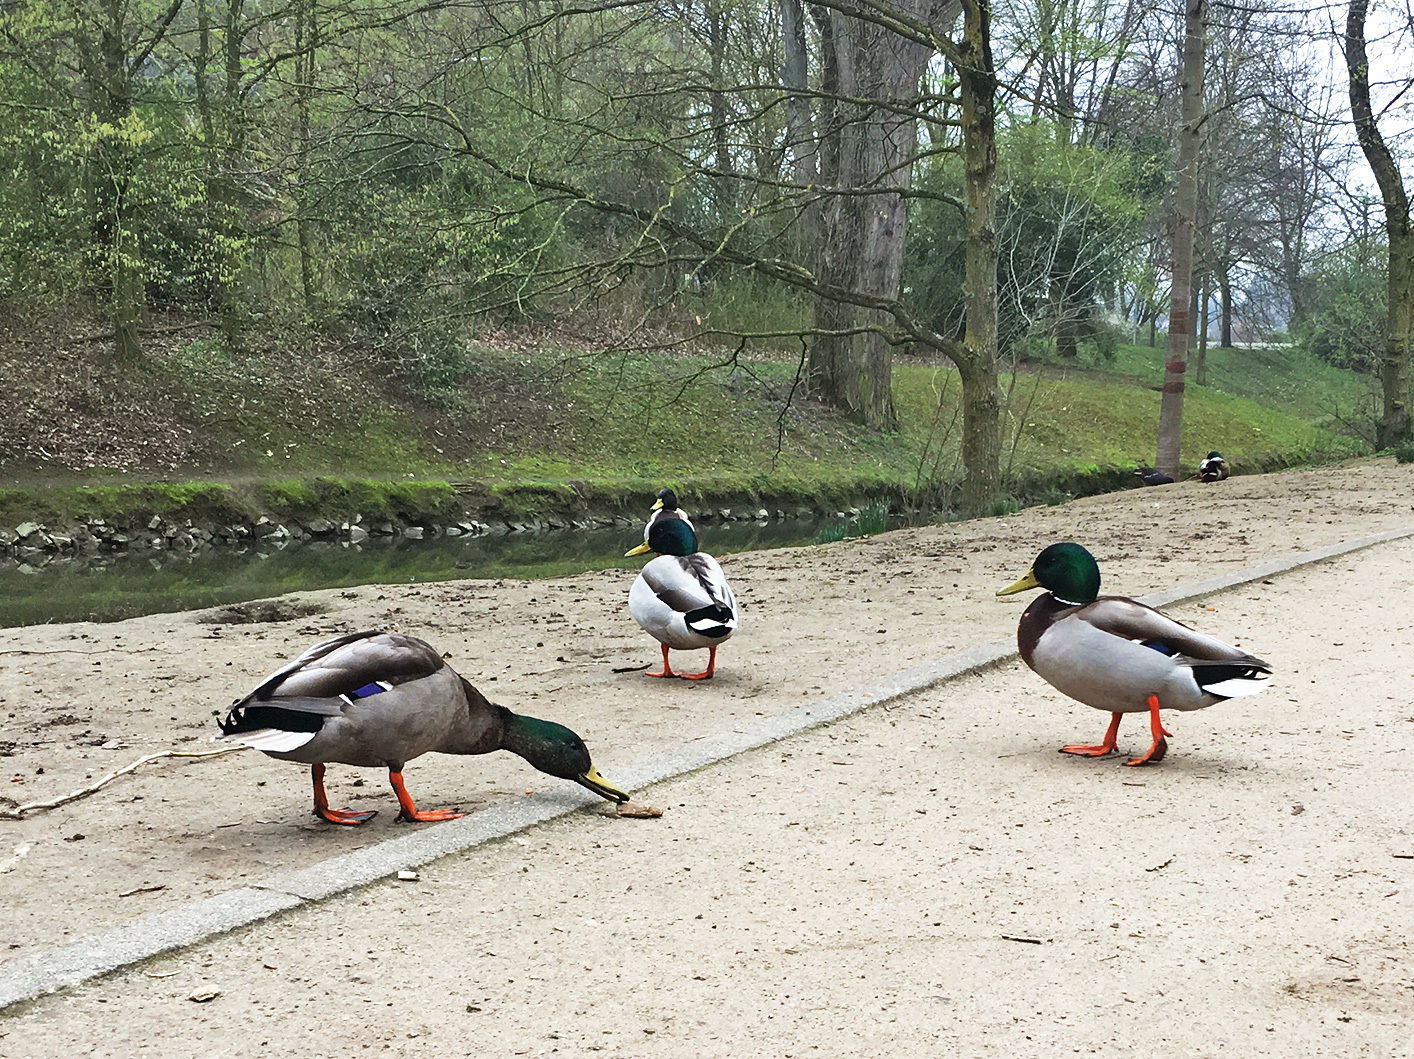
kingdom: Animalia
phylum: Chordata
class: Aves
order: Anseriformes
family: Anatidae
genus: Anas
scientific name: Anas platyrhynchos
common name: Mallard
